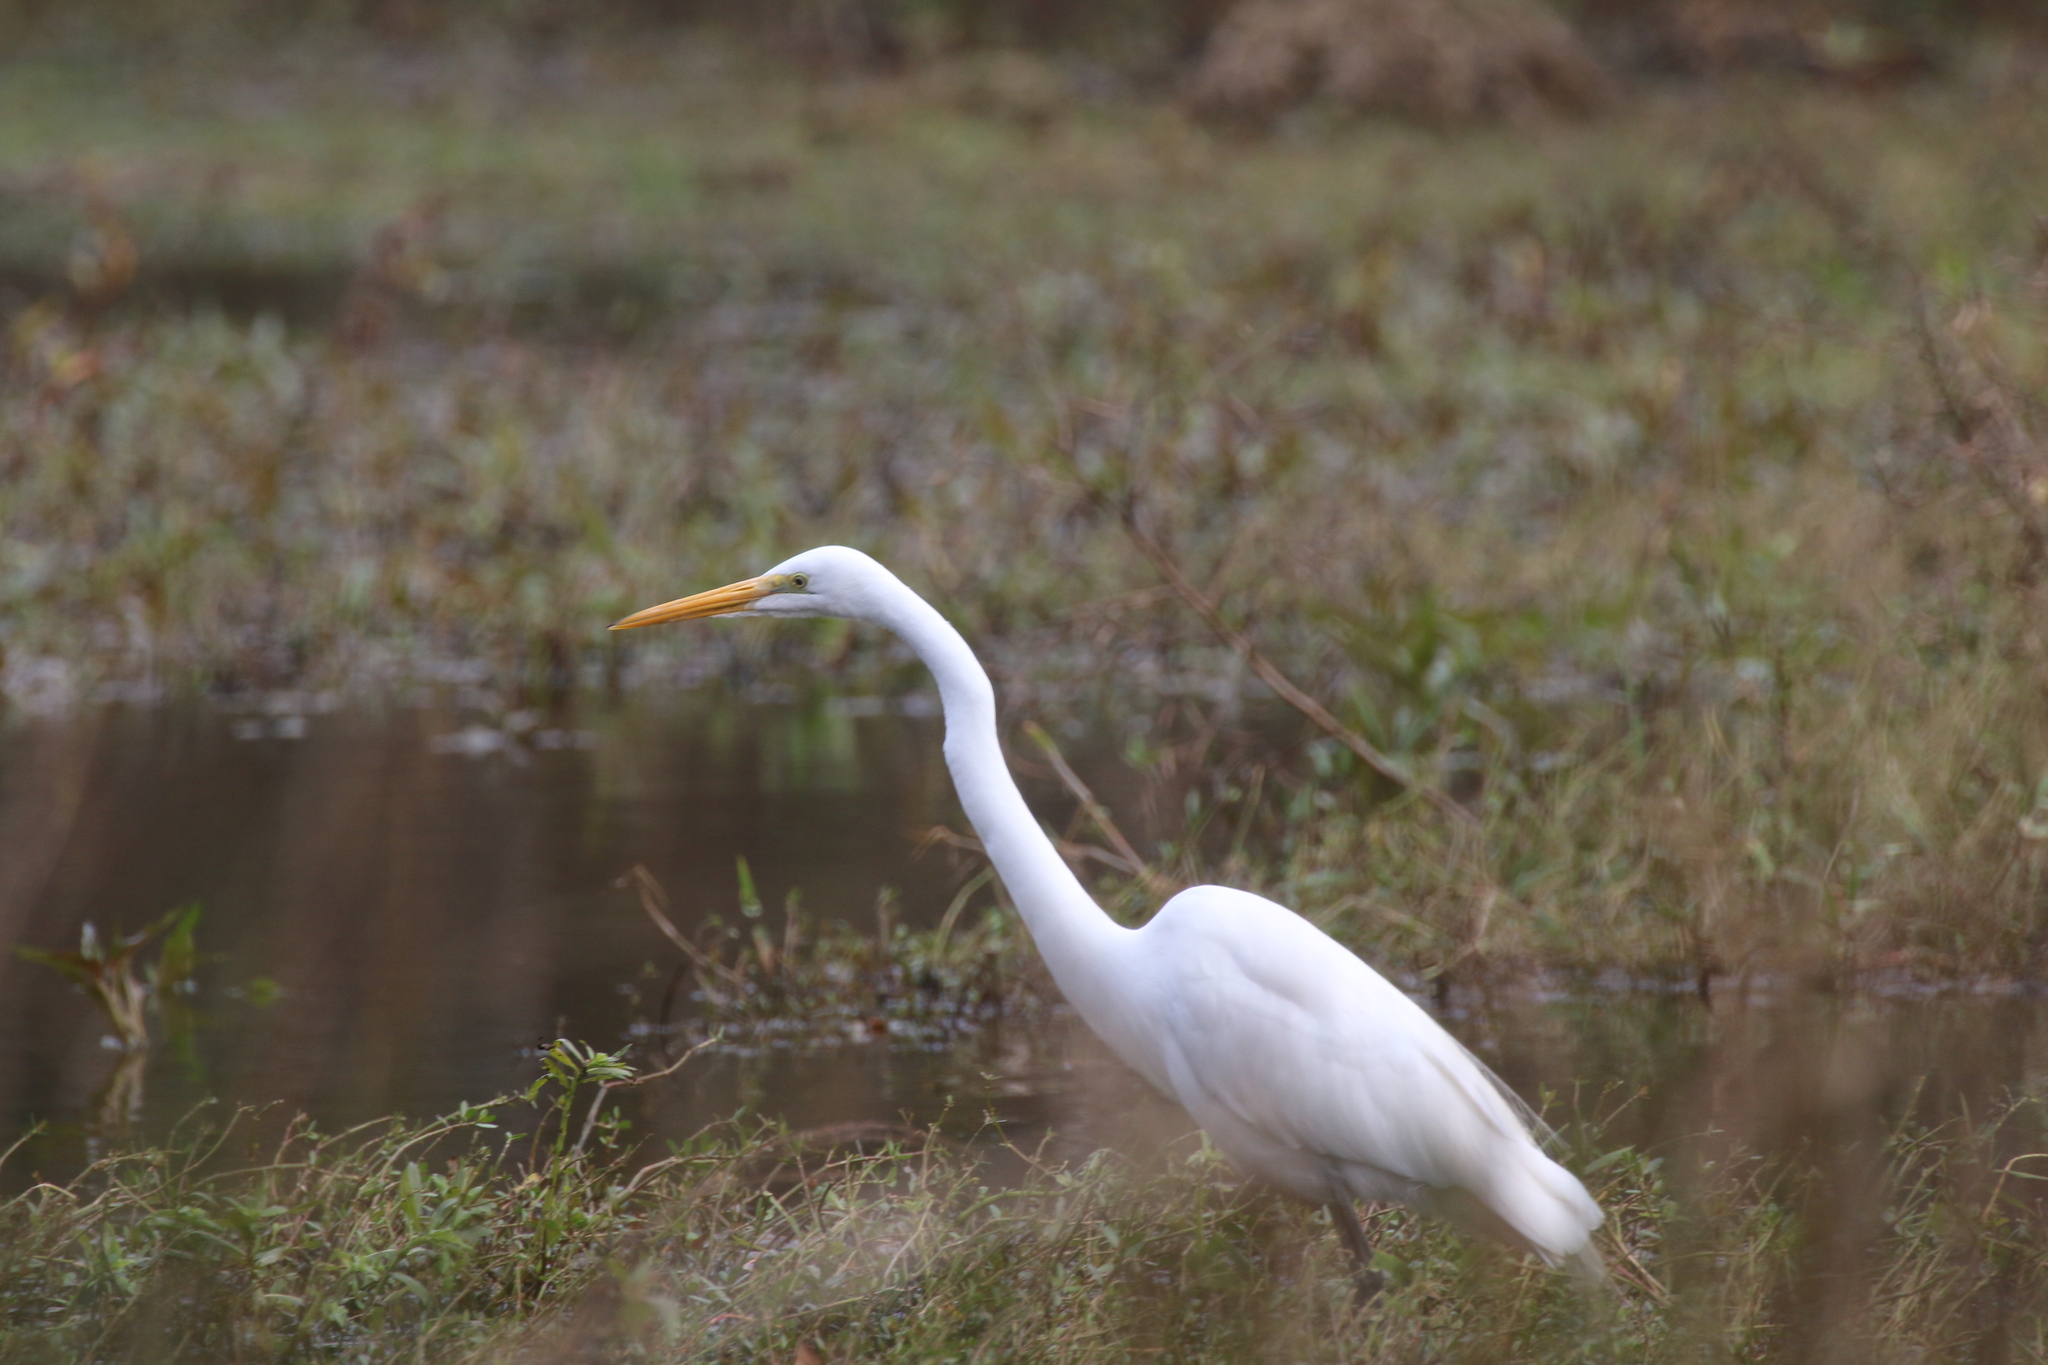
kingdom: Animalia
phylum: Chordata
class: Aves
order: Pelecaniformes
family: Ardeidae
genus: Ardea
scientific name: Ardea alba
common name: Great egret
